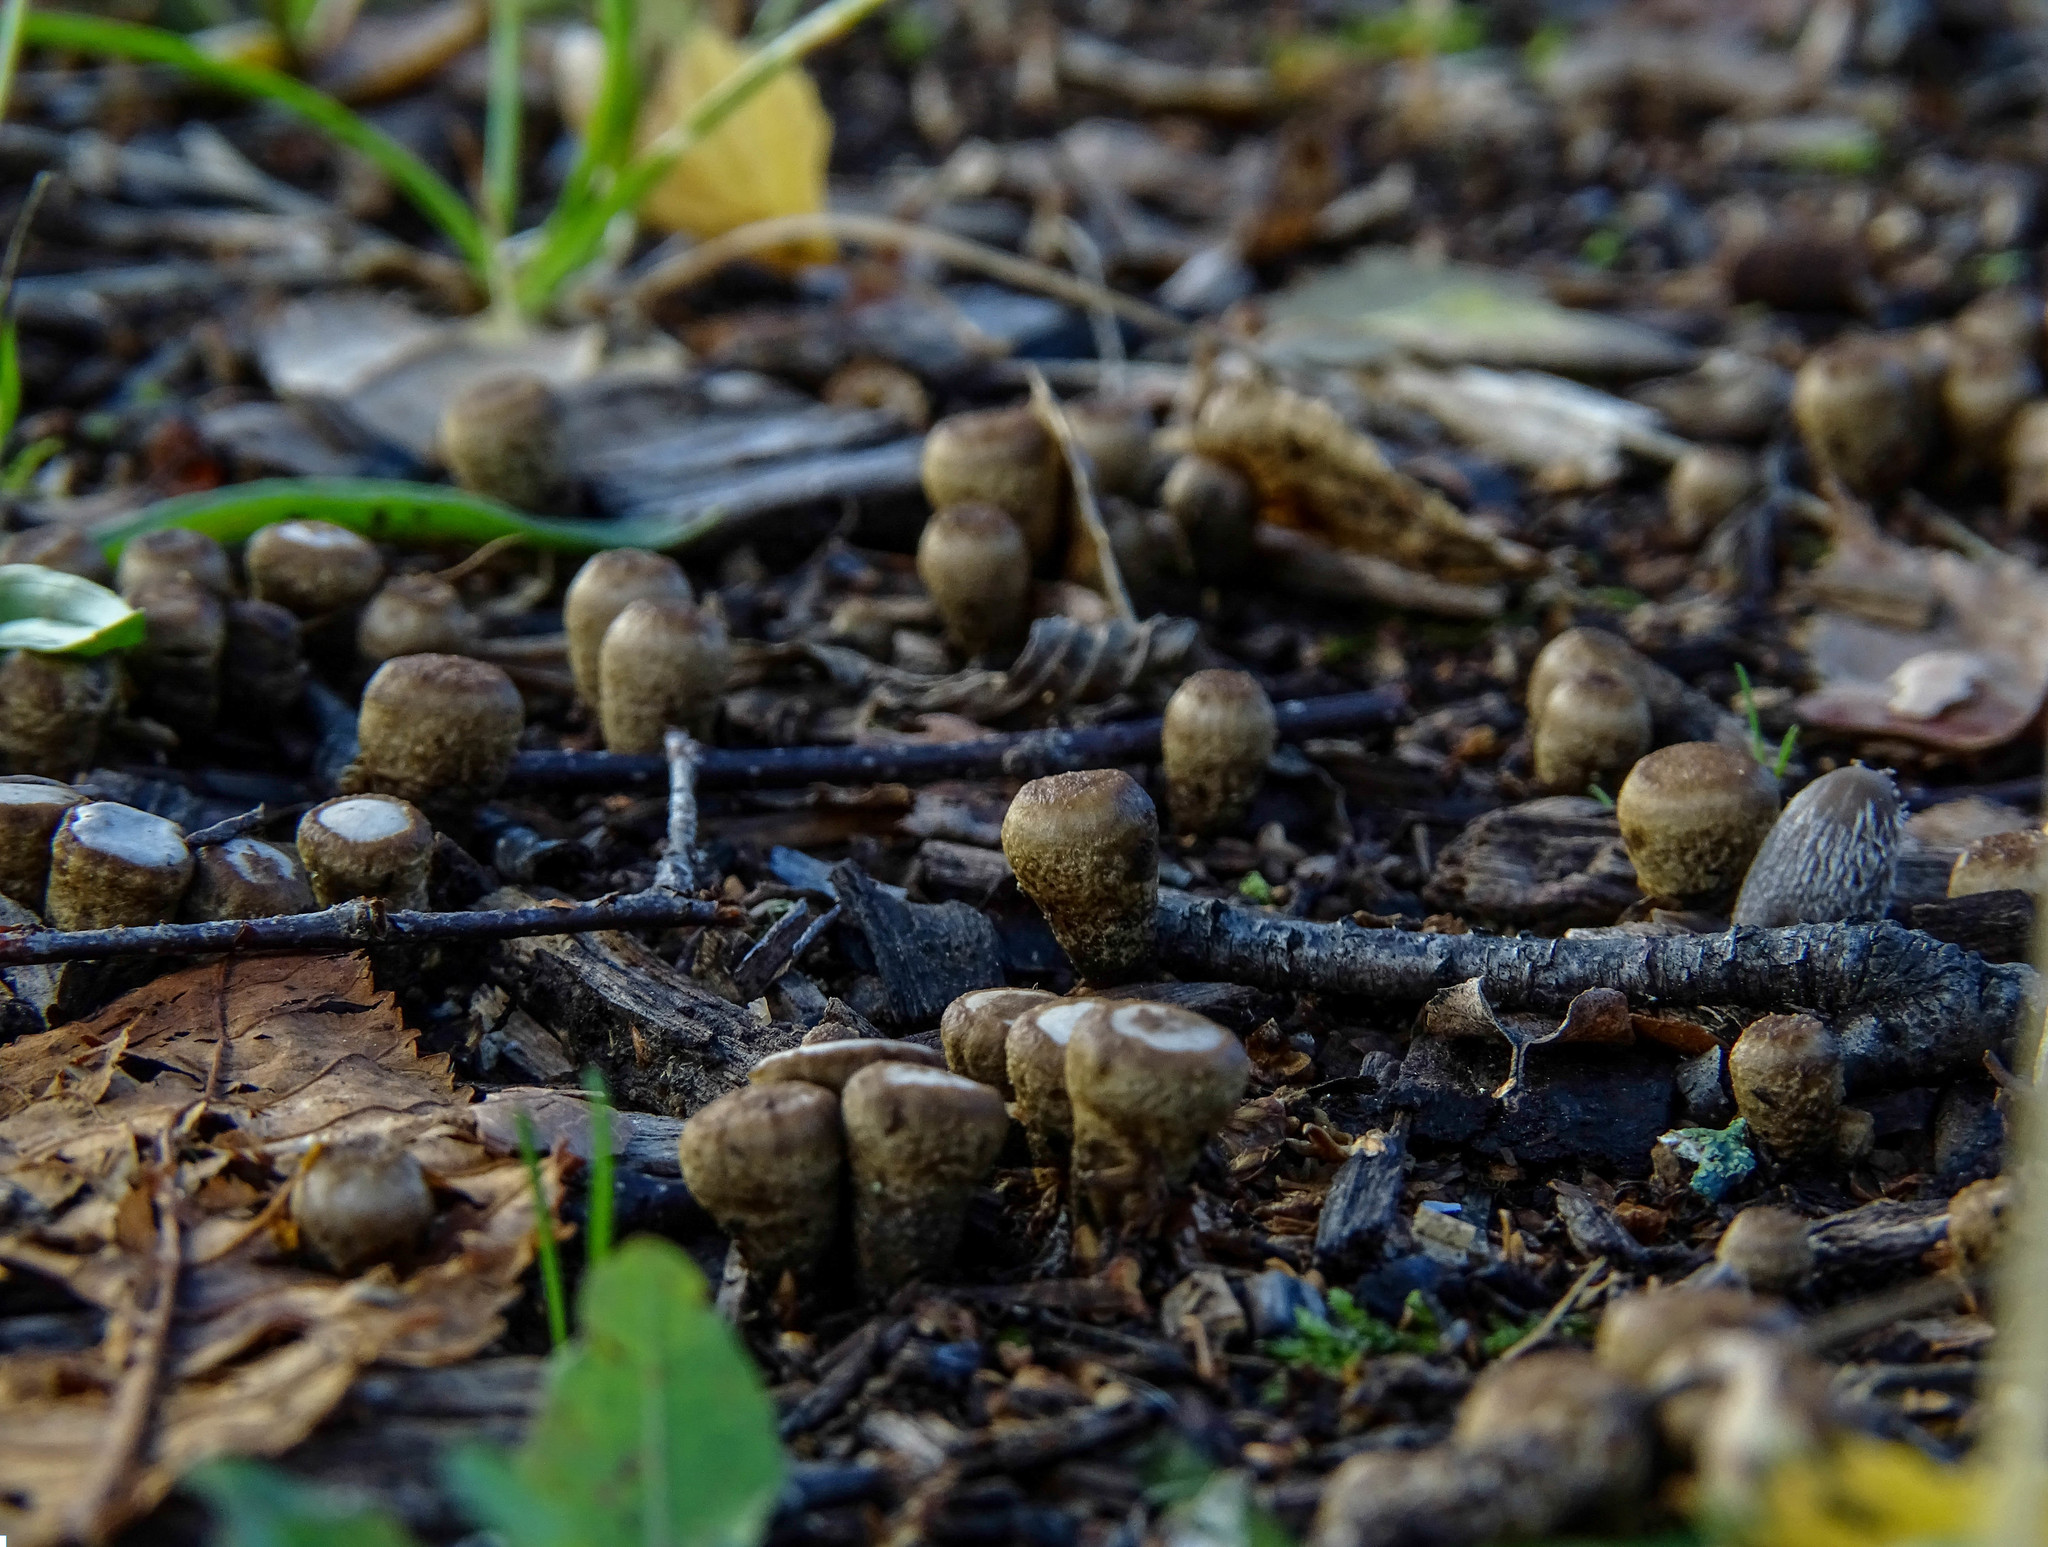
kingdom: Fungi
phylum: Basidiomycota
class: Agaricomycetes
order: Agaricales
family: Agaricaceae
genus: Cyathus
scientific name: Cyathus olla
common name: Field bird's nest
